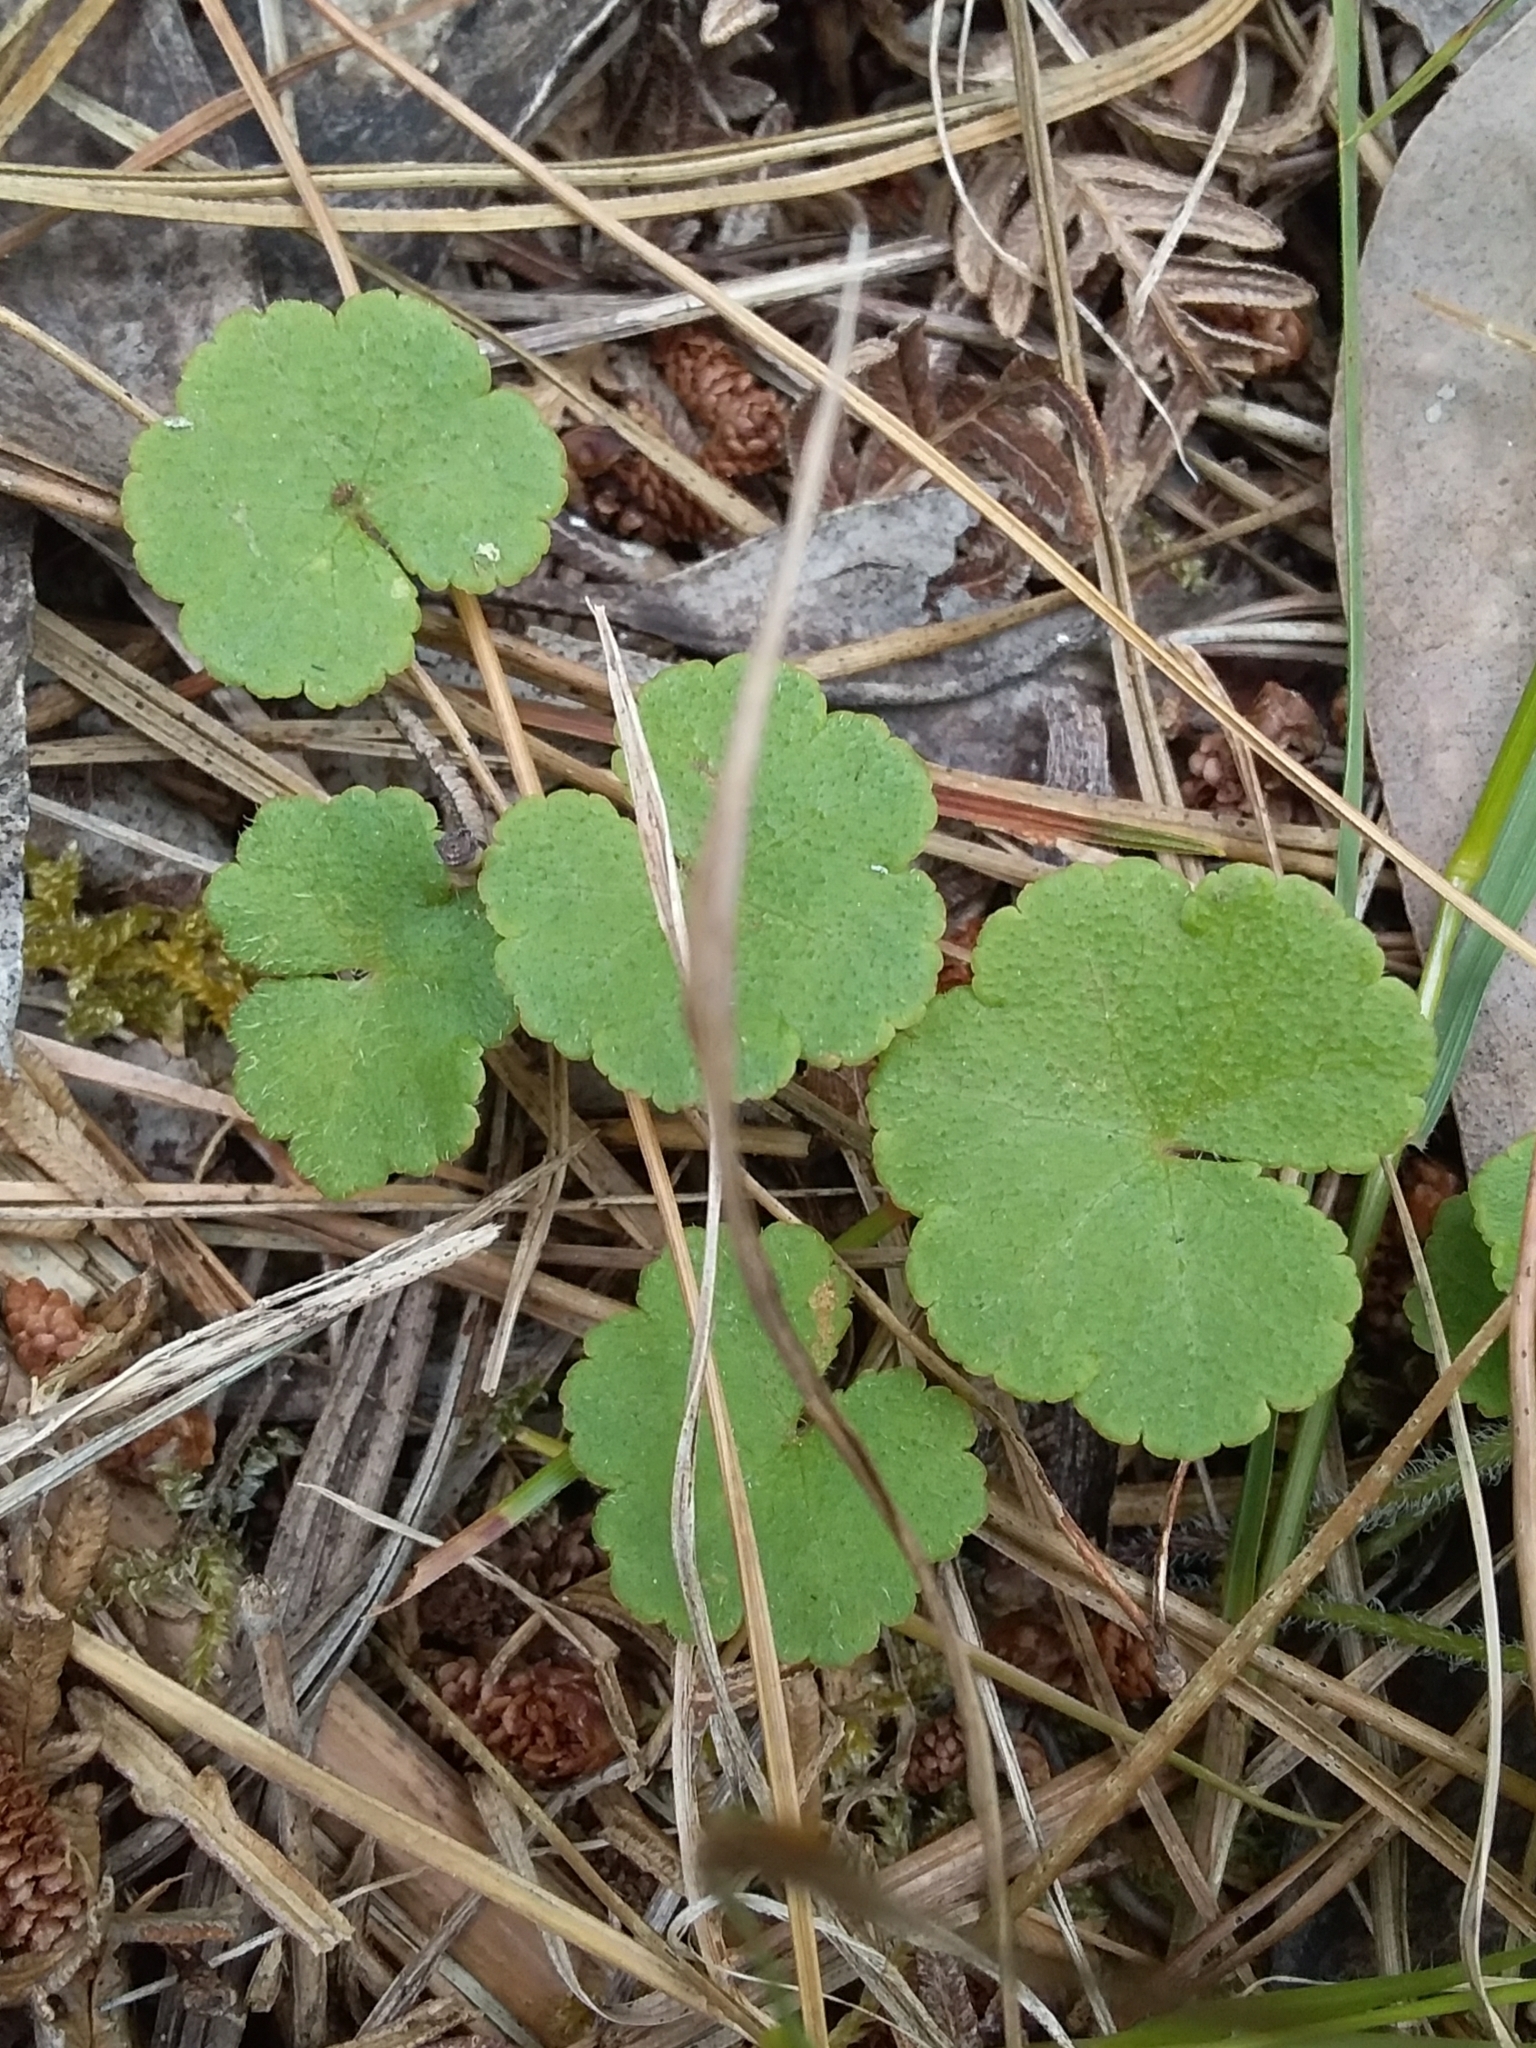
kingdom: Plantae
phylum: Tracheophyta
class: Magnoliopsida
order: Apiales
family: Araliaceae
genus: Hydrocotyle
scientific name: Hydrocotyle laxiflora
